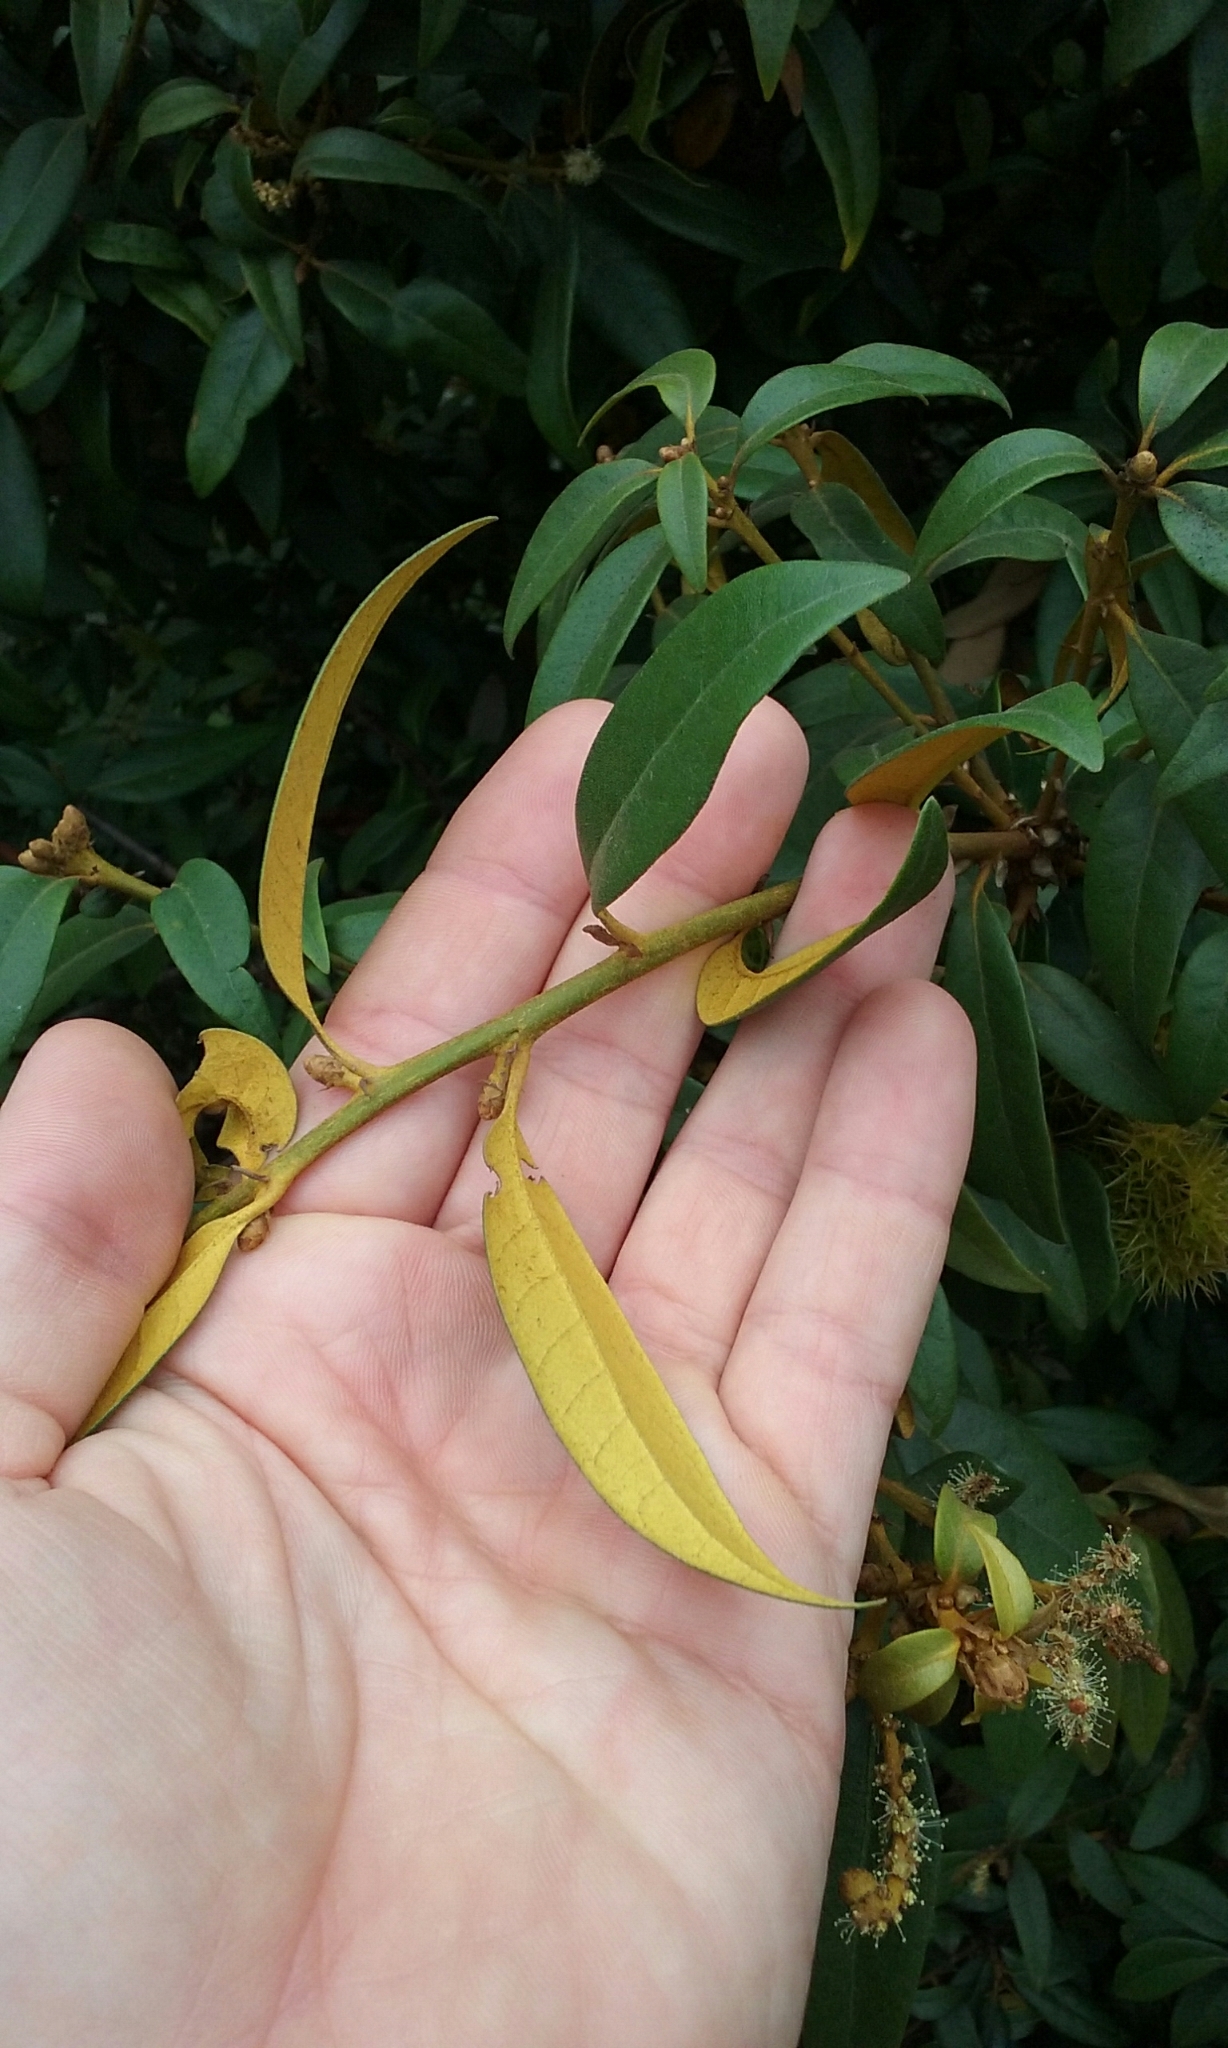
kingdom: Plantae
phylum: Tracheophyta
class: Magnoliopsida
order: Fagales
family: Fagaceae
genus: Chrysolepis
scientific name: Chrysolepis chrysophylla
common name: Giant chinquapin
